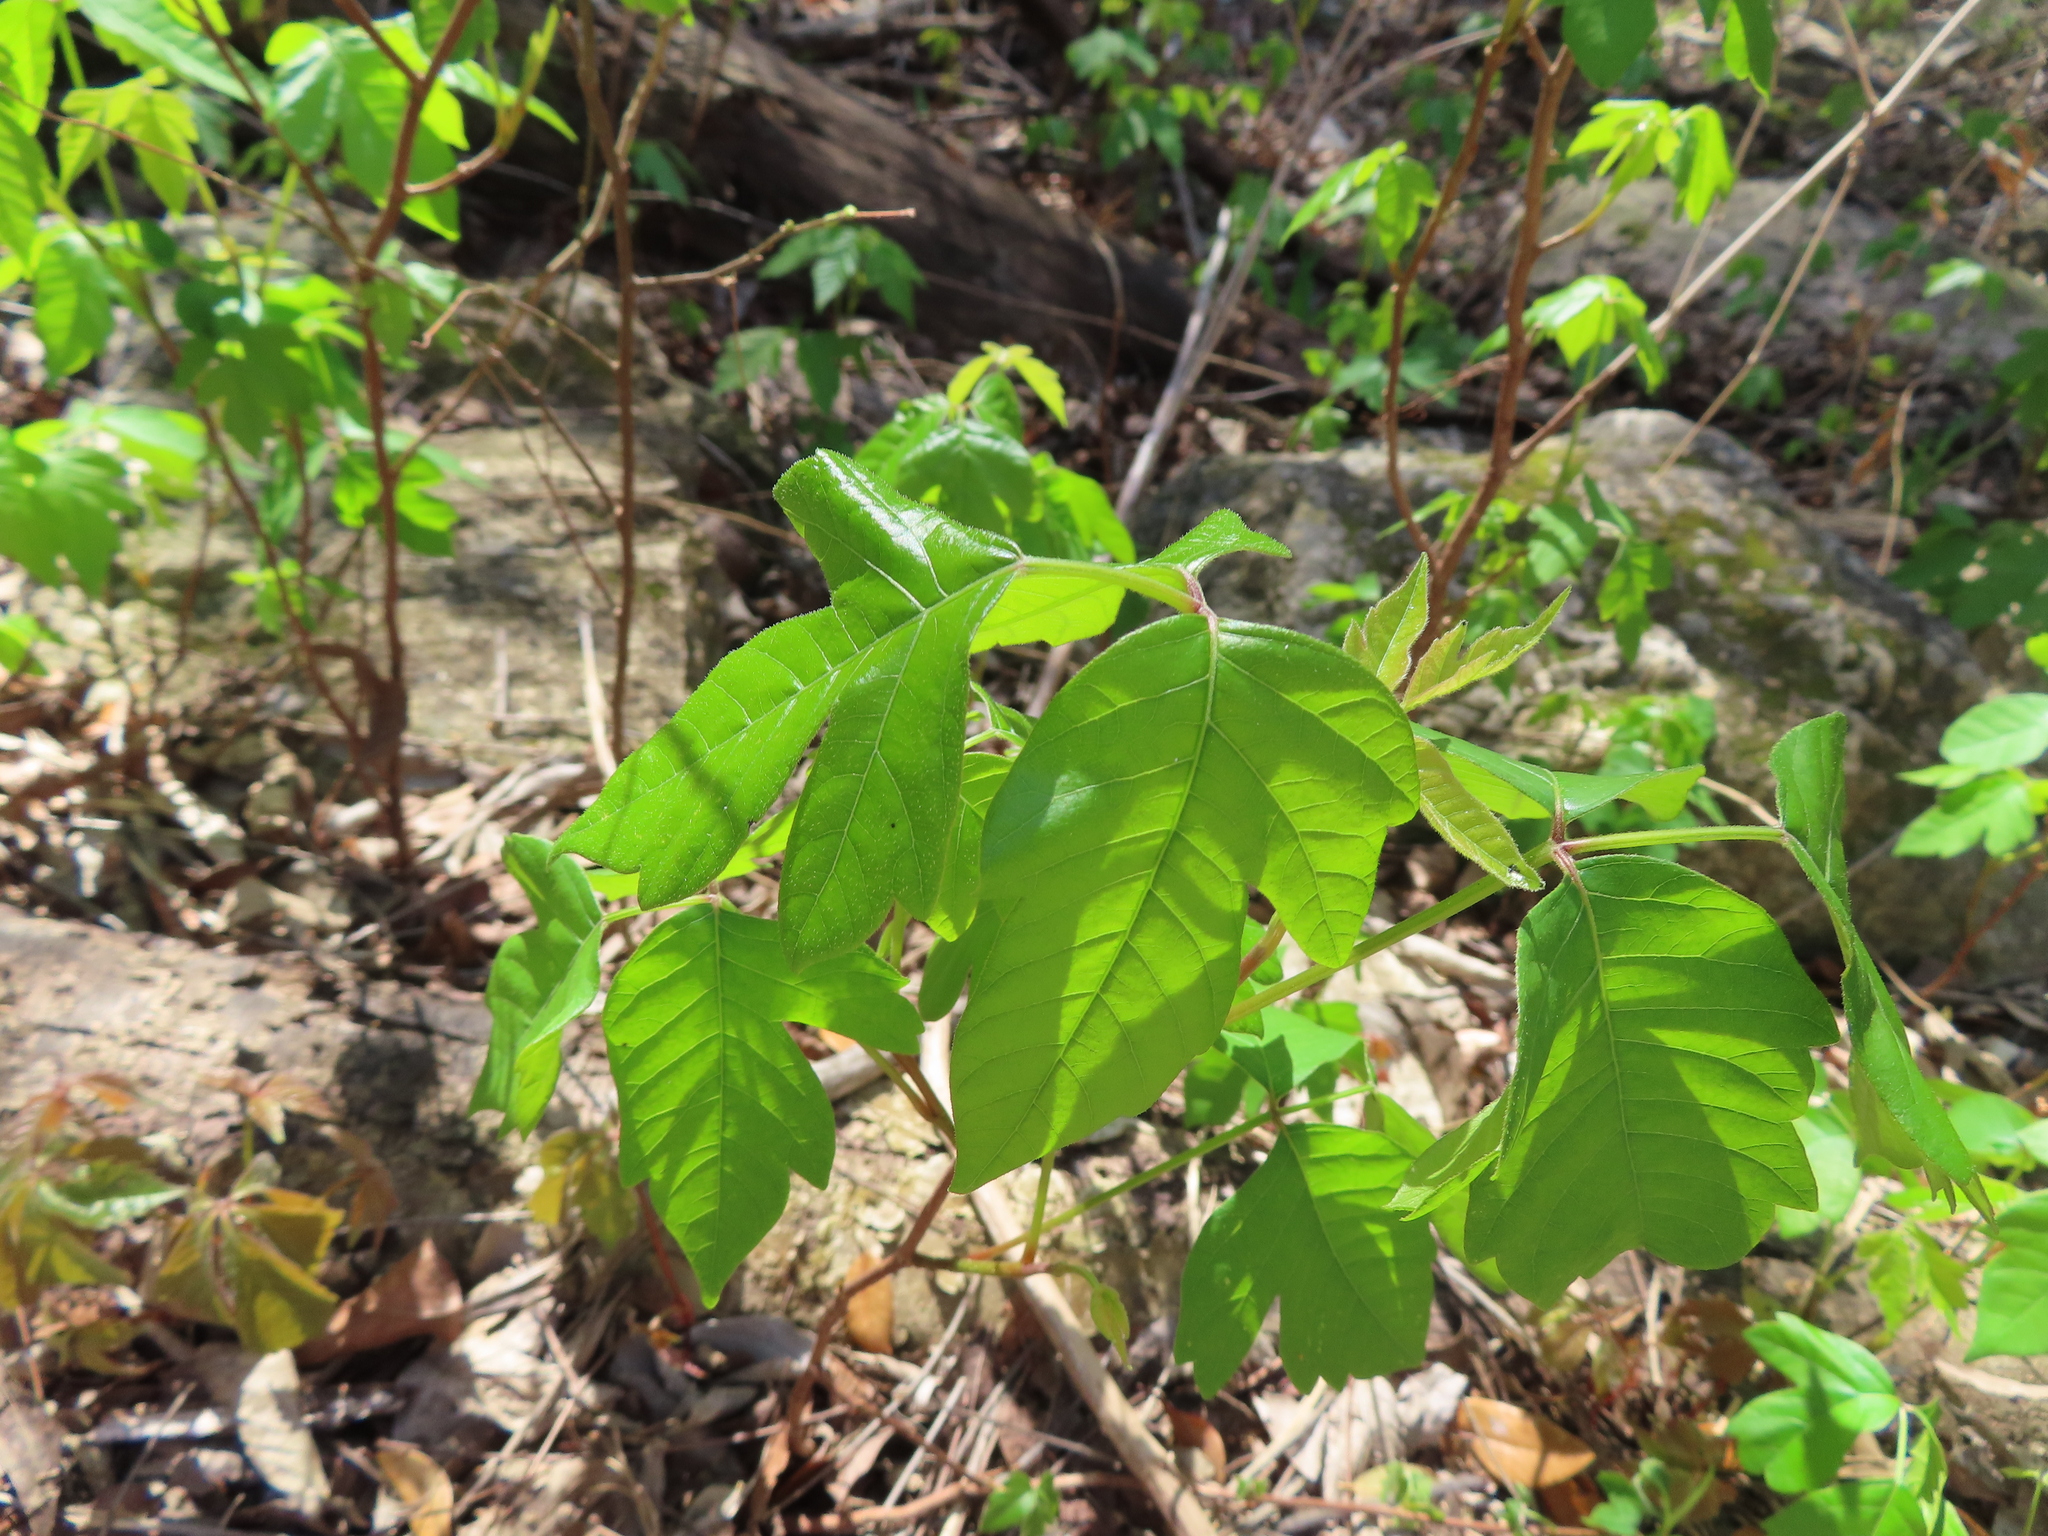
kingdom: Plantae
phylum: Tracheophyta
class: Magnoliopsida
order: Sapindales
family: Anacardiaceae
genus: Toxicodendron
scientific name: Toxicodendron radicans
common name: Poison ivy
